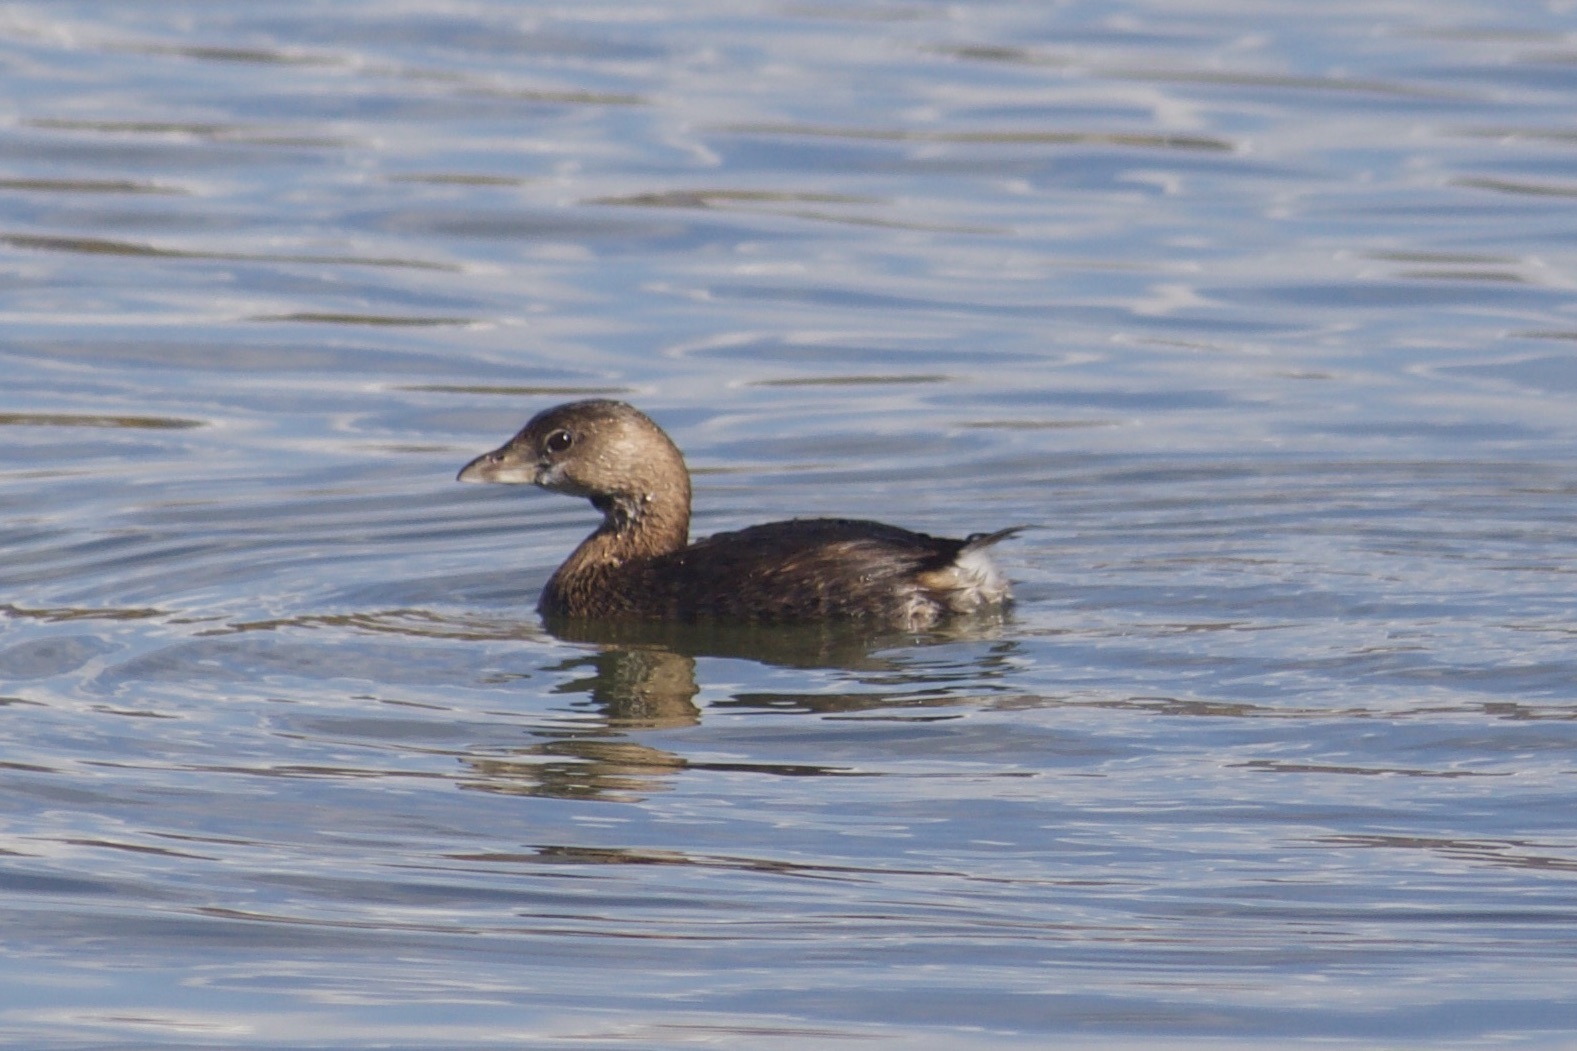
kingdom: Animalia
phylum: Chordata
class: Aves
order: Podicipediformes
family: Podicipedidae
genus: Podilymbus
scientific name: Podilymbus podiceps
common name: Pied-billed grebe
